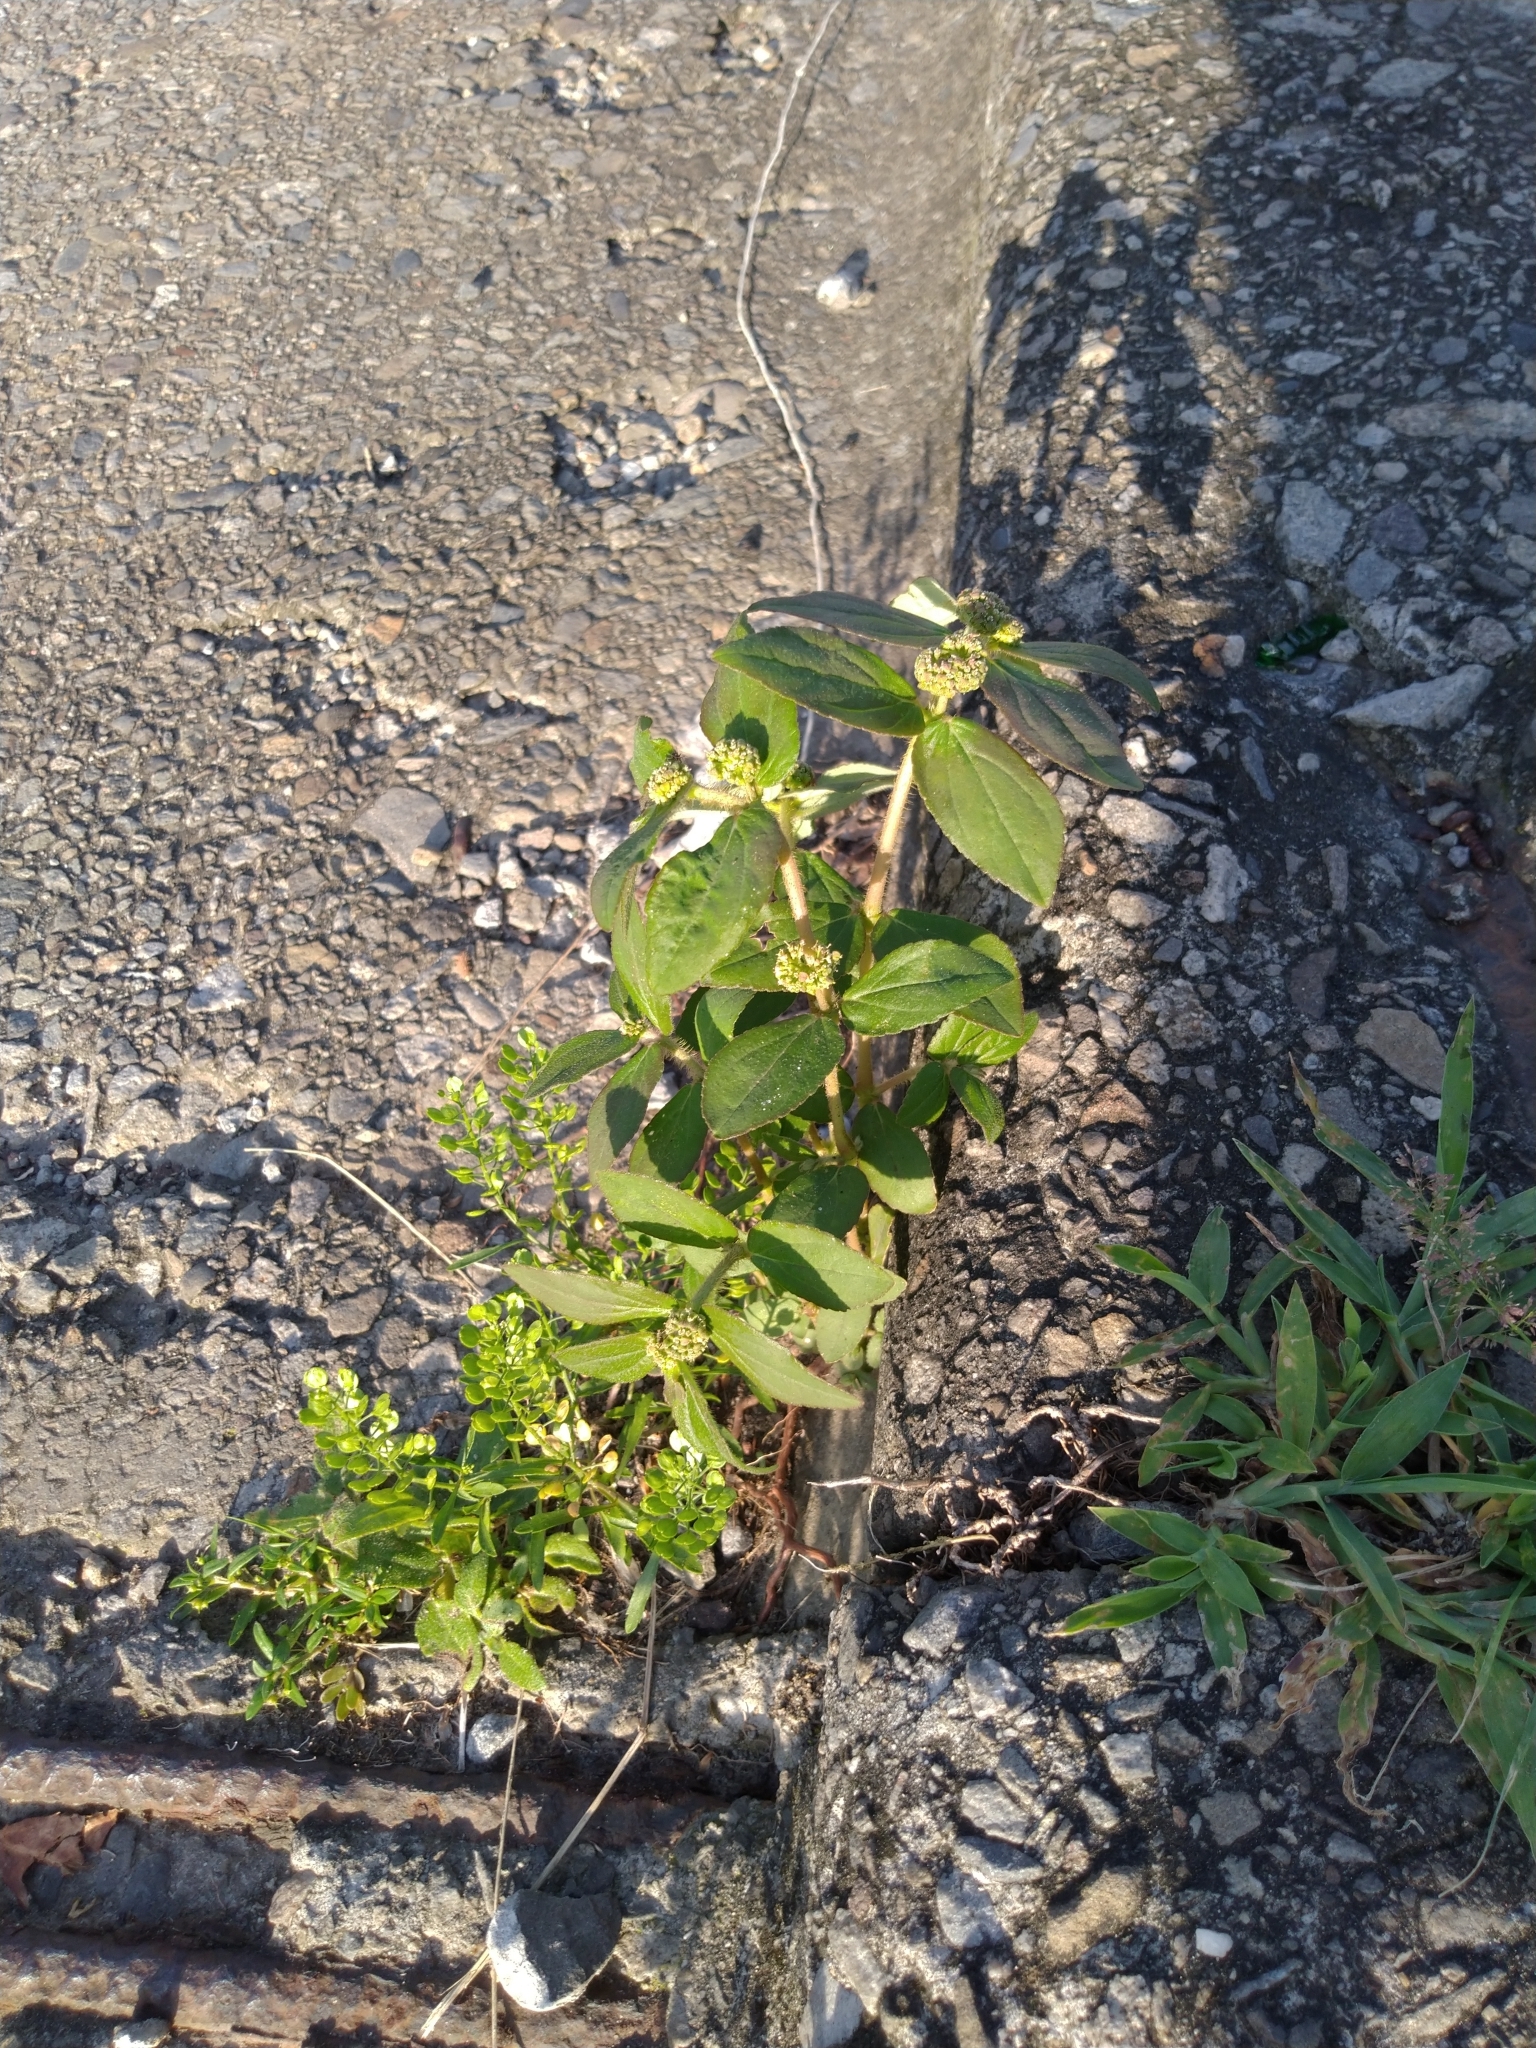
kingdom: Plantae
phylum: Tracheophyta
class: Magnoliopsida
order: Malpighiales
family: Euphorbiaceae
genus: Euphorbia
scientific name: Euphorbia hirta
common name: Pillpod sandmat
